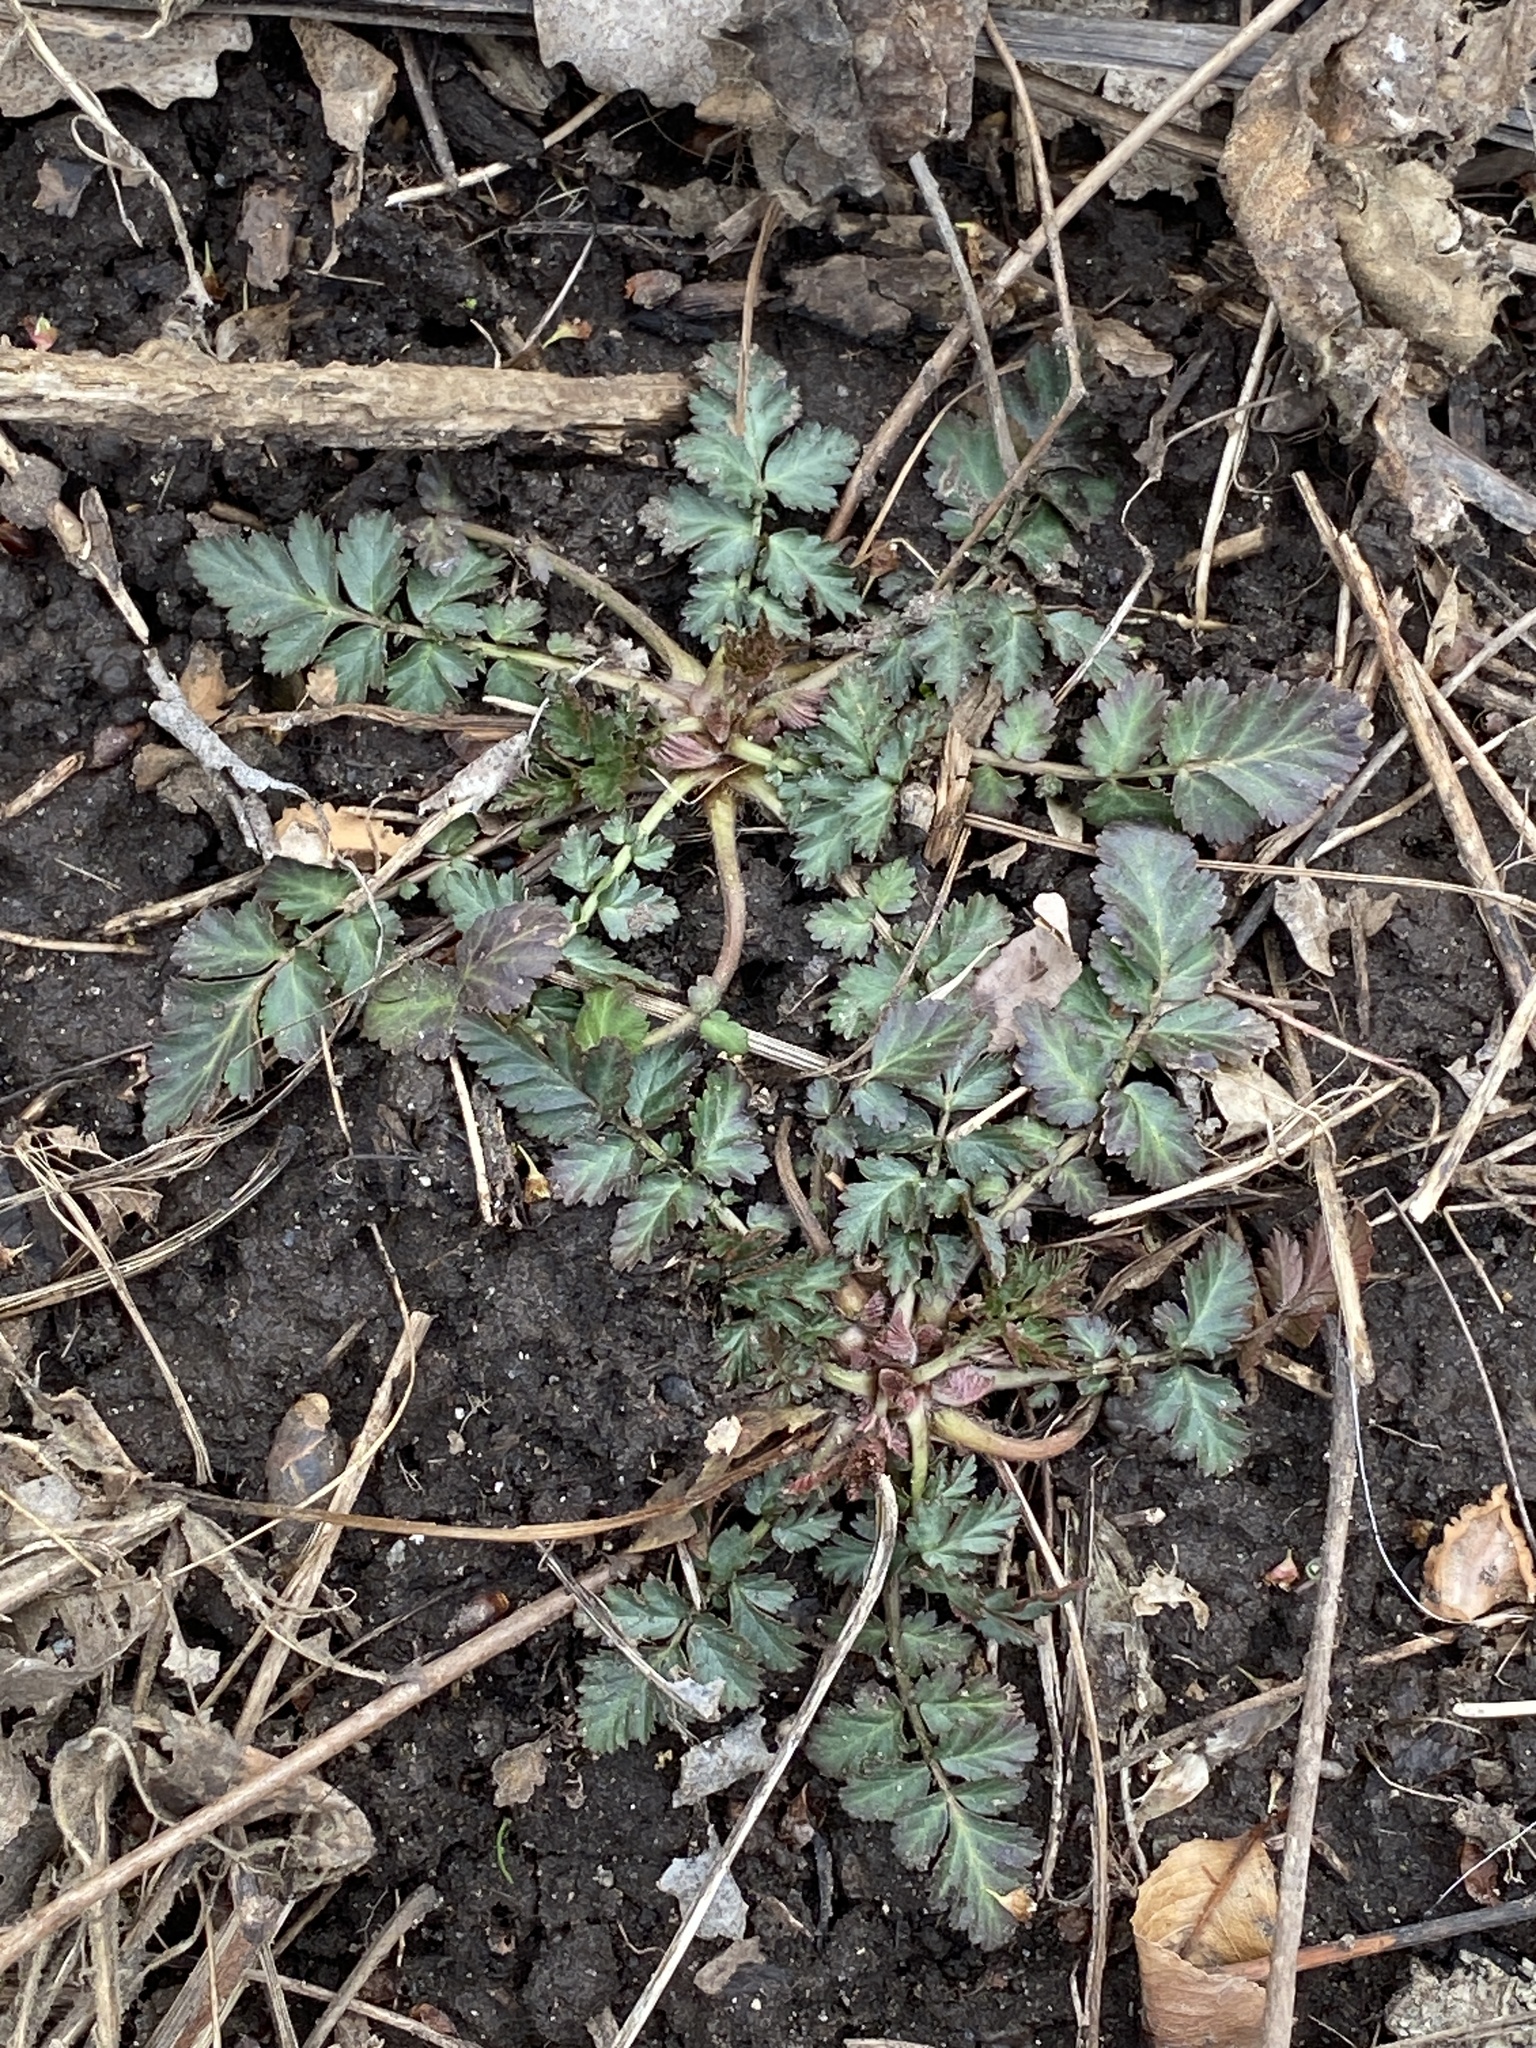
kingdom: Plantae
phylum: Tracheophyta
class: Magnoliopsida
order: Rosales
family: Rosaceae
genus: Geum
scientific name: Geum canadense
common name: White avens
